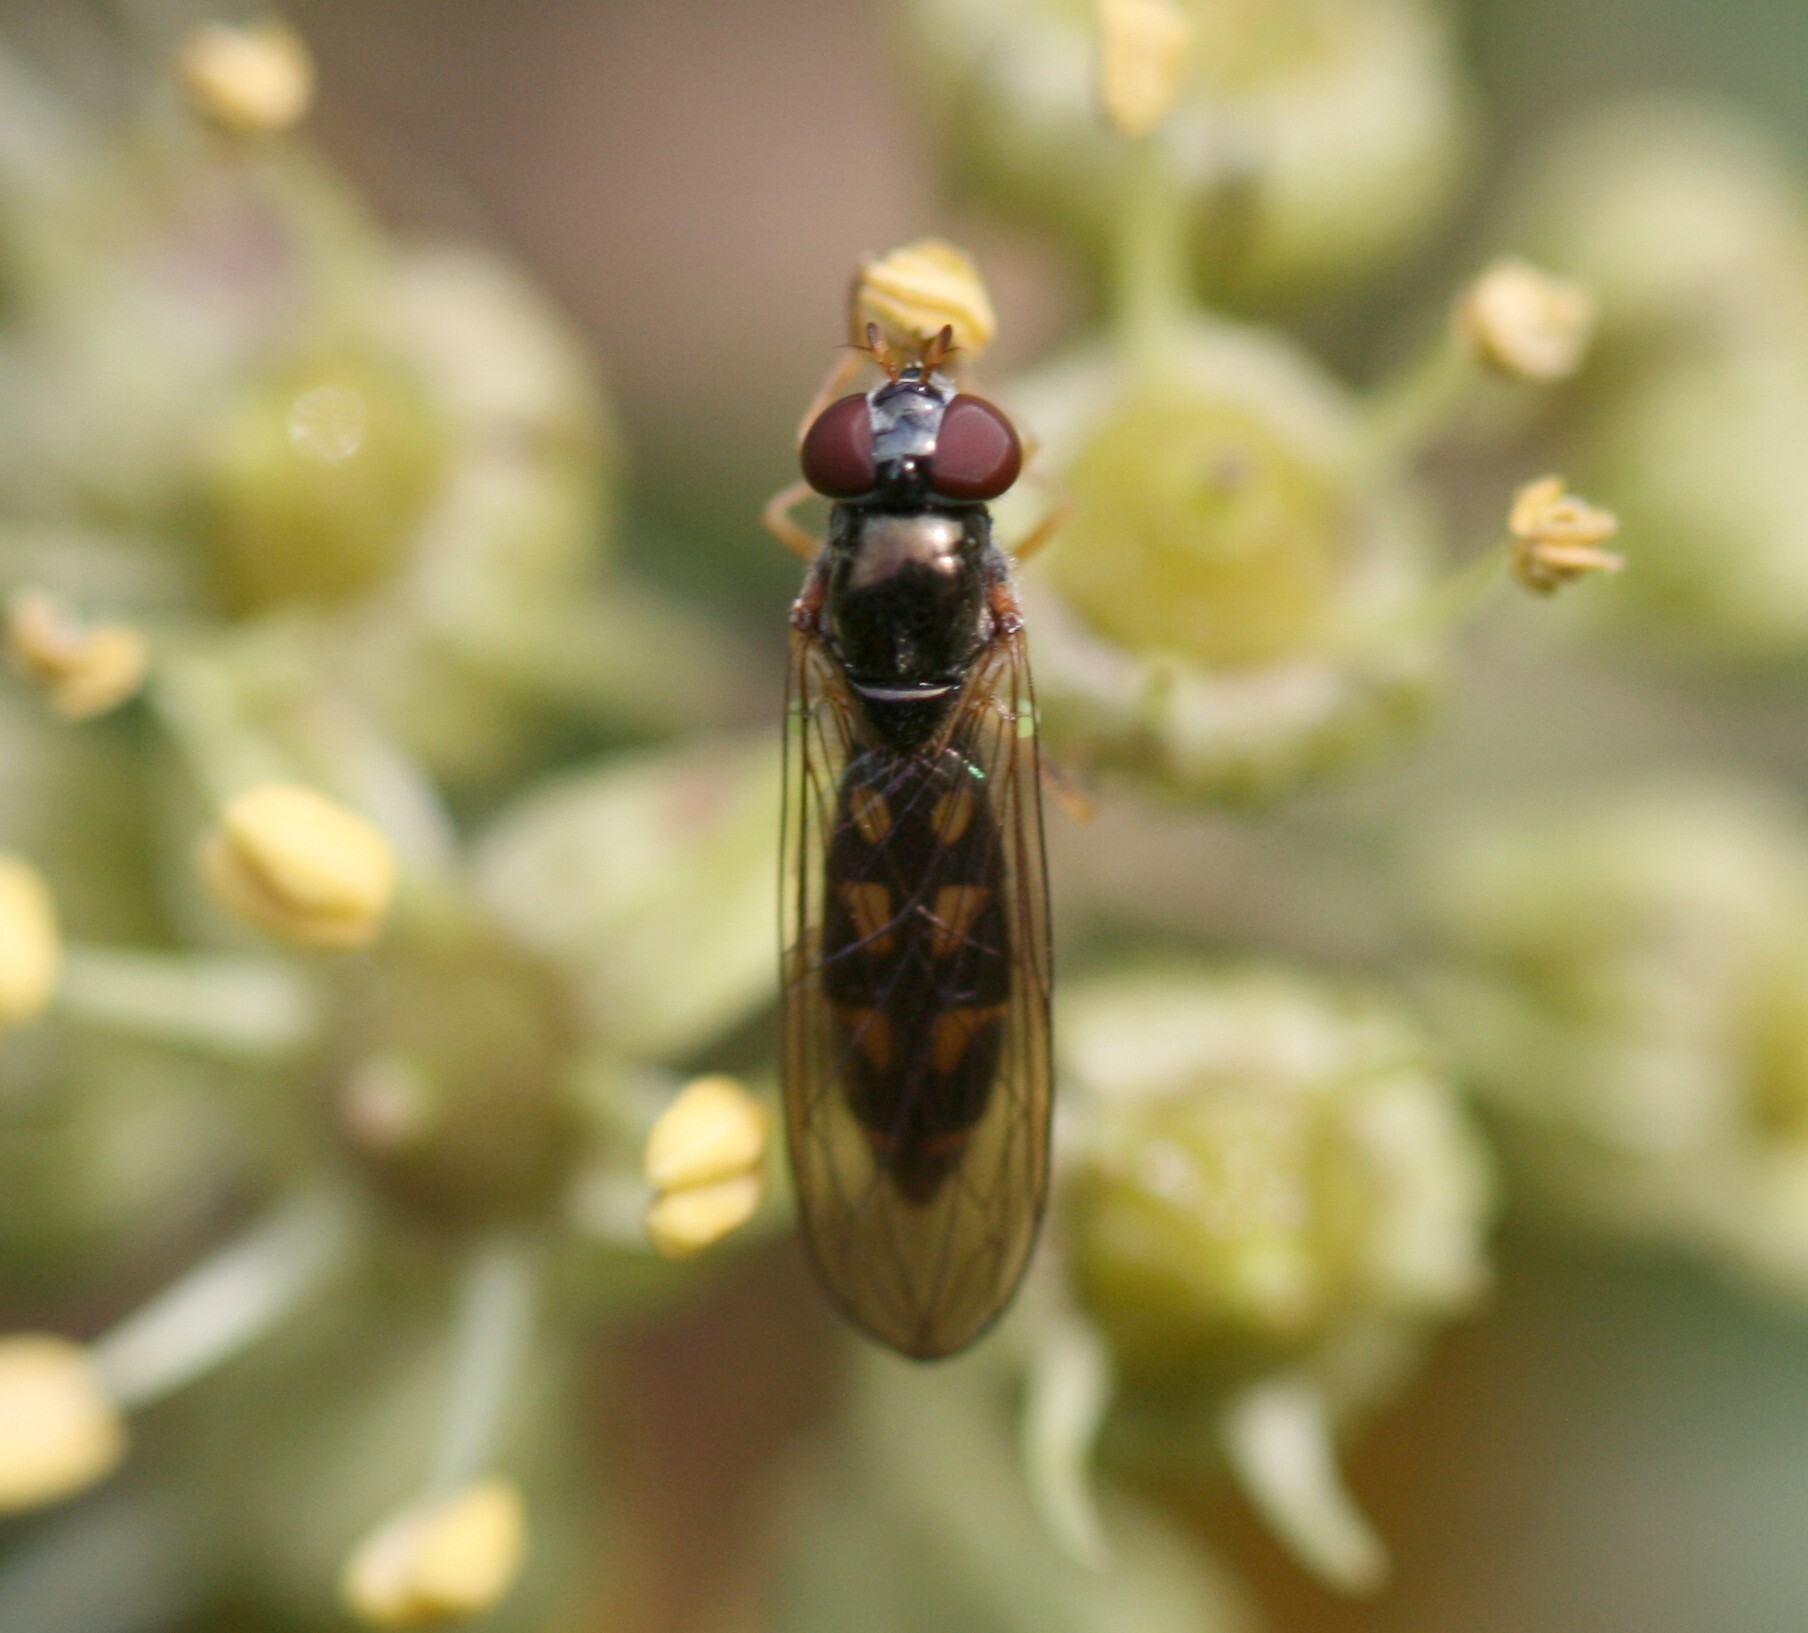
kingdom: Animalia
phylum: Arthropoda
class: Insecta
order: Diptera
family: Syrphidae
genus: Melanostoma
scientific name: Melanostoma scalare
